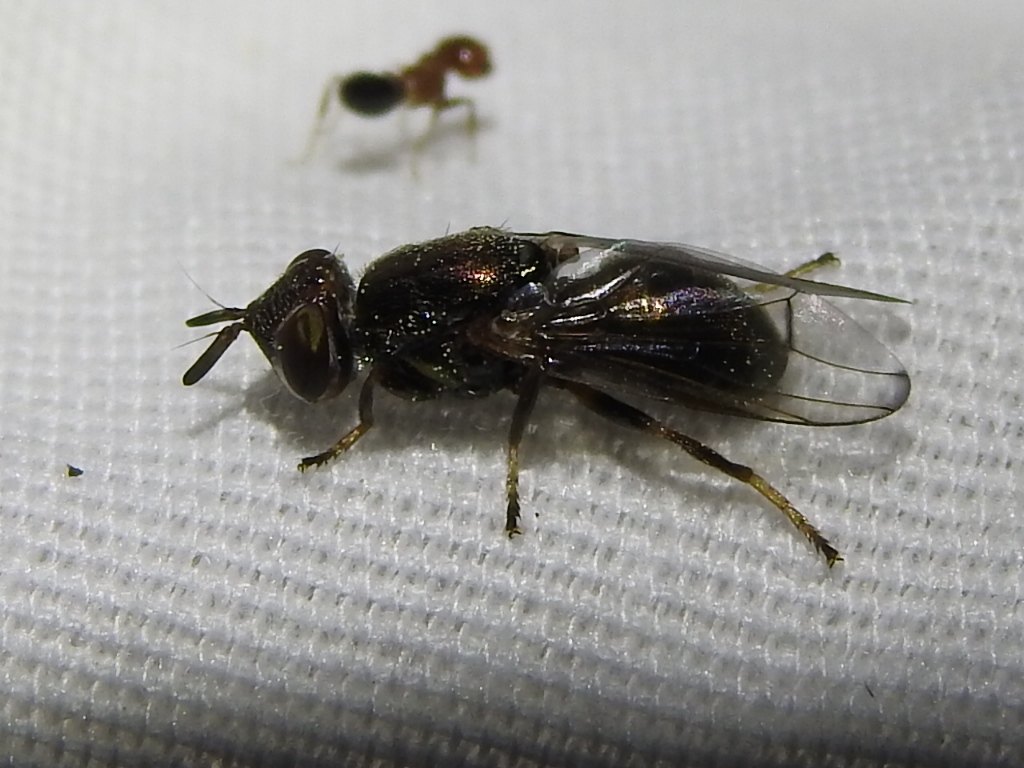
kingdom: Animalia
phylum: Arthropoda
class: Insecta
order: Diptera
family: Platystomatidae
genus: Senopterina
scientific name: Senopterina foxleei
